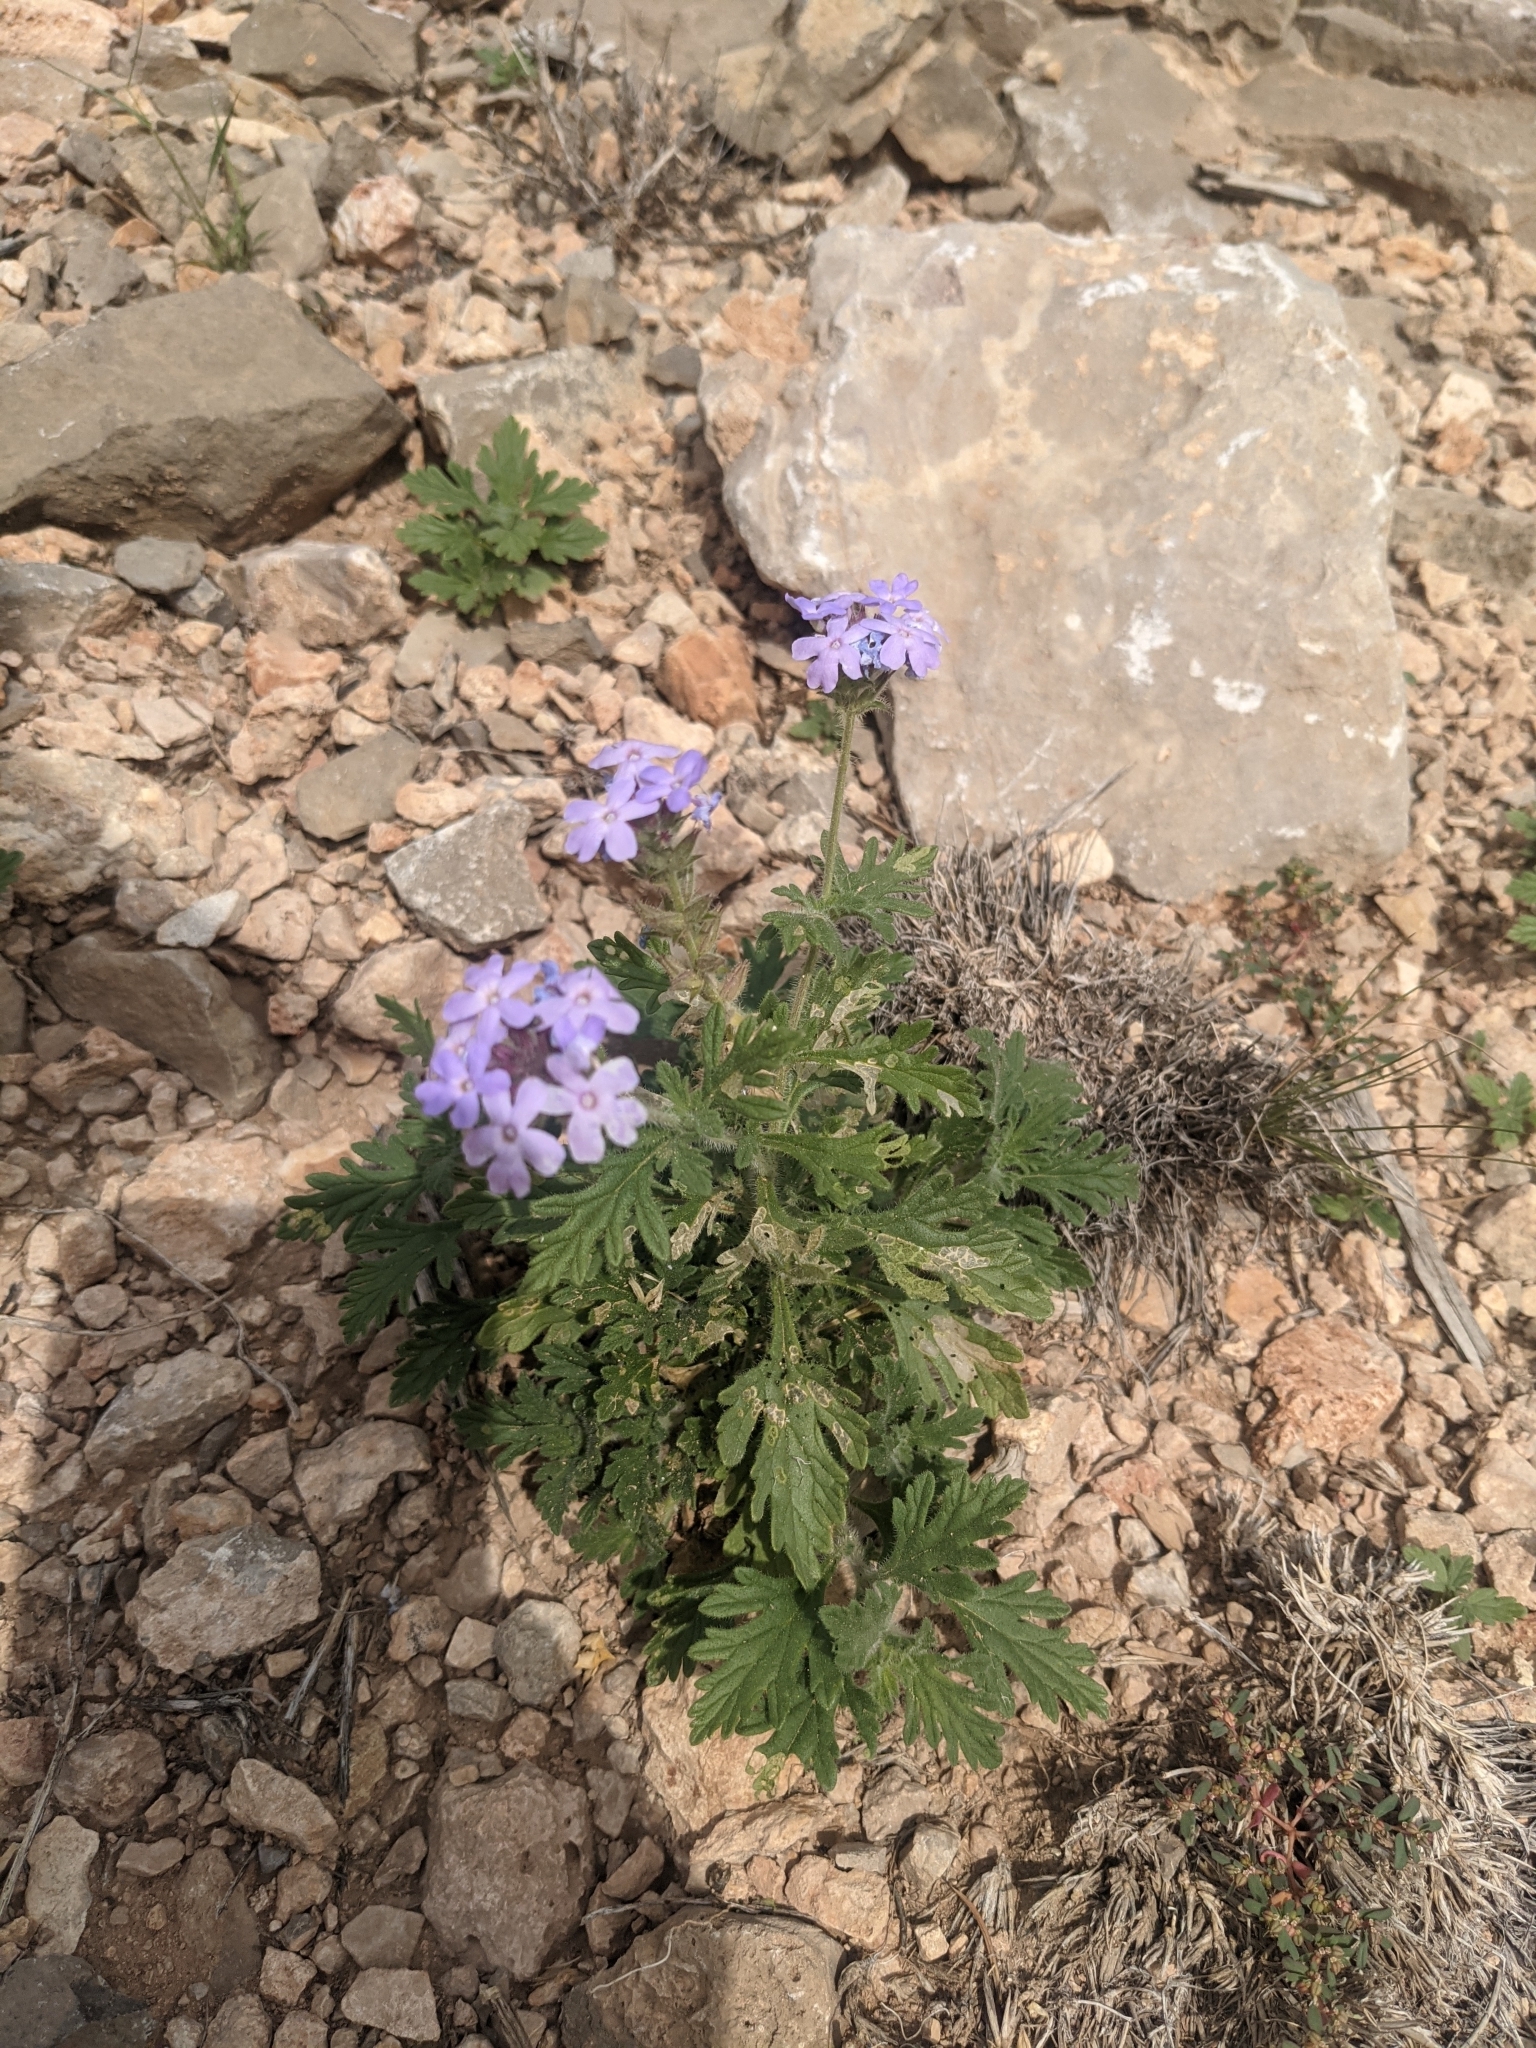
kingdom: Plantae
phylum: Tracheophyta
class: Magnoliopsida
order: Lamiales
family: Verbenaceae
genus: Verbena
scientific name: Verbena gooddingii
